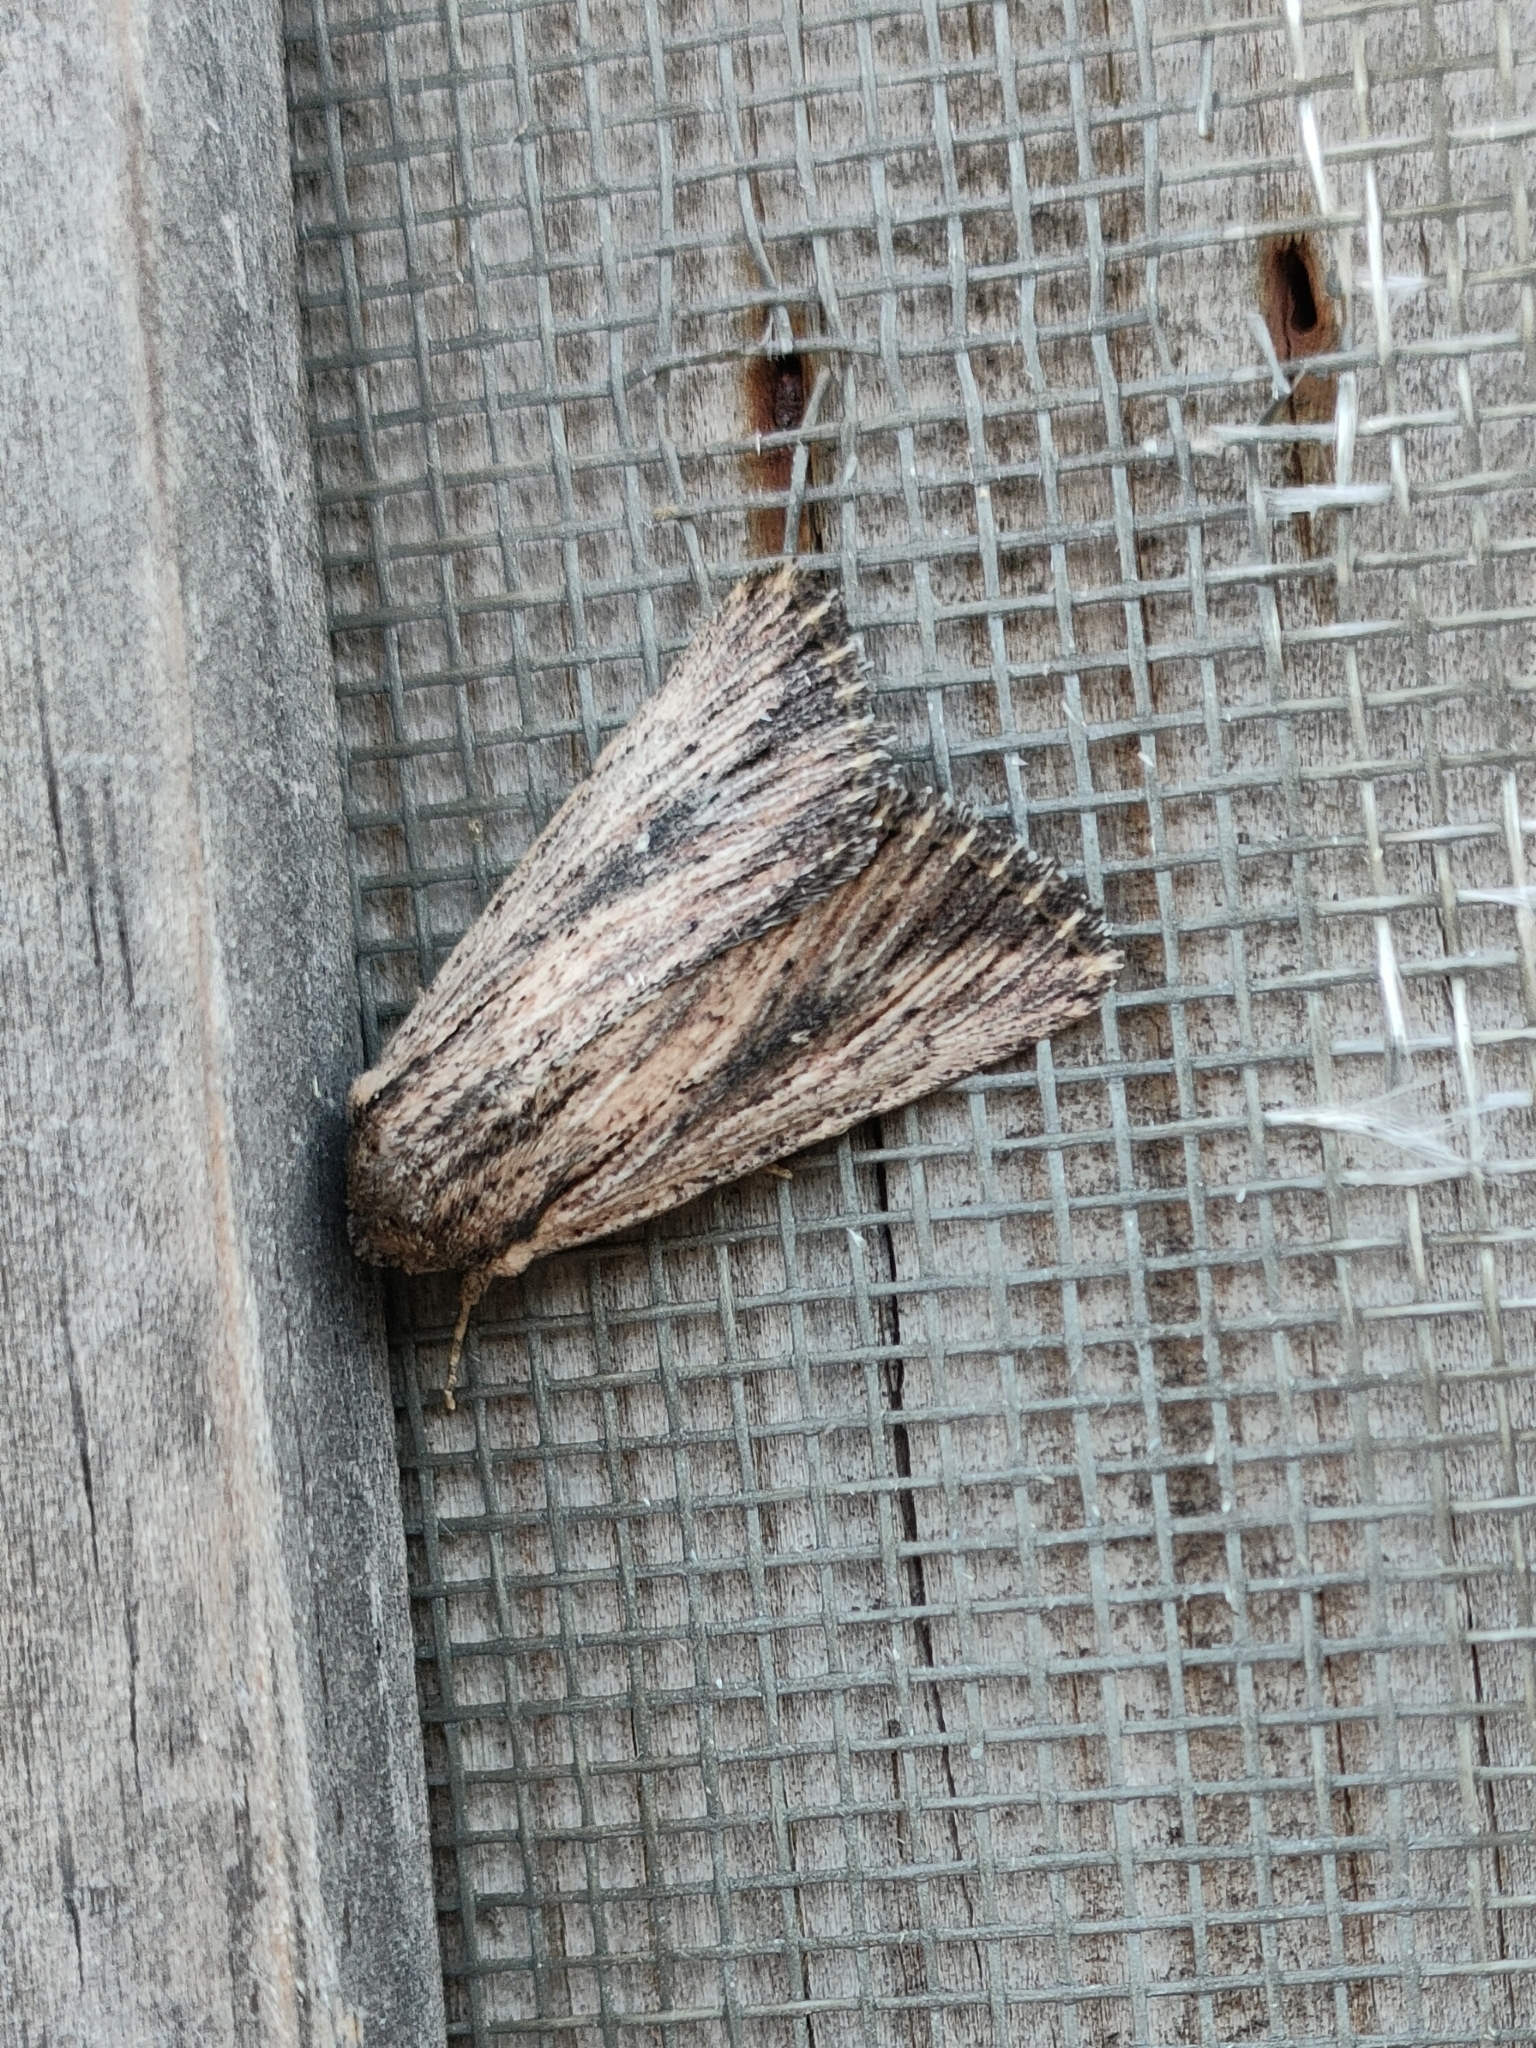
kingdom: Animalia
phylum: Arthropoda
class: Insecta
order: Lepidoptera
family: Noctuidae
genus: Leucania
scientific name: Leucania putrescens
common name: Devonshire wainscot
